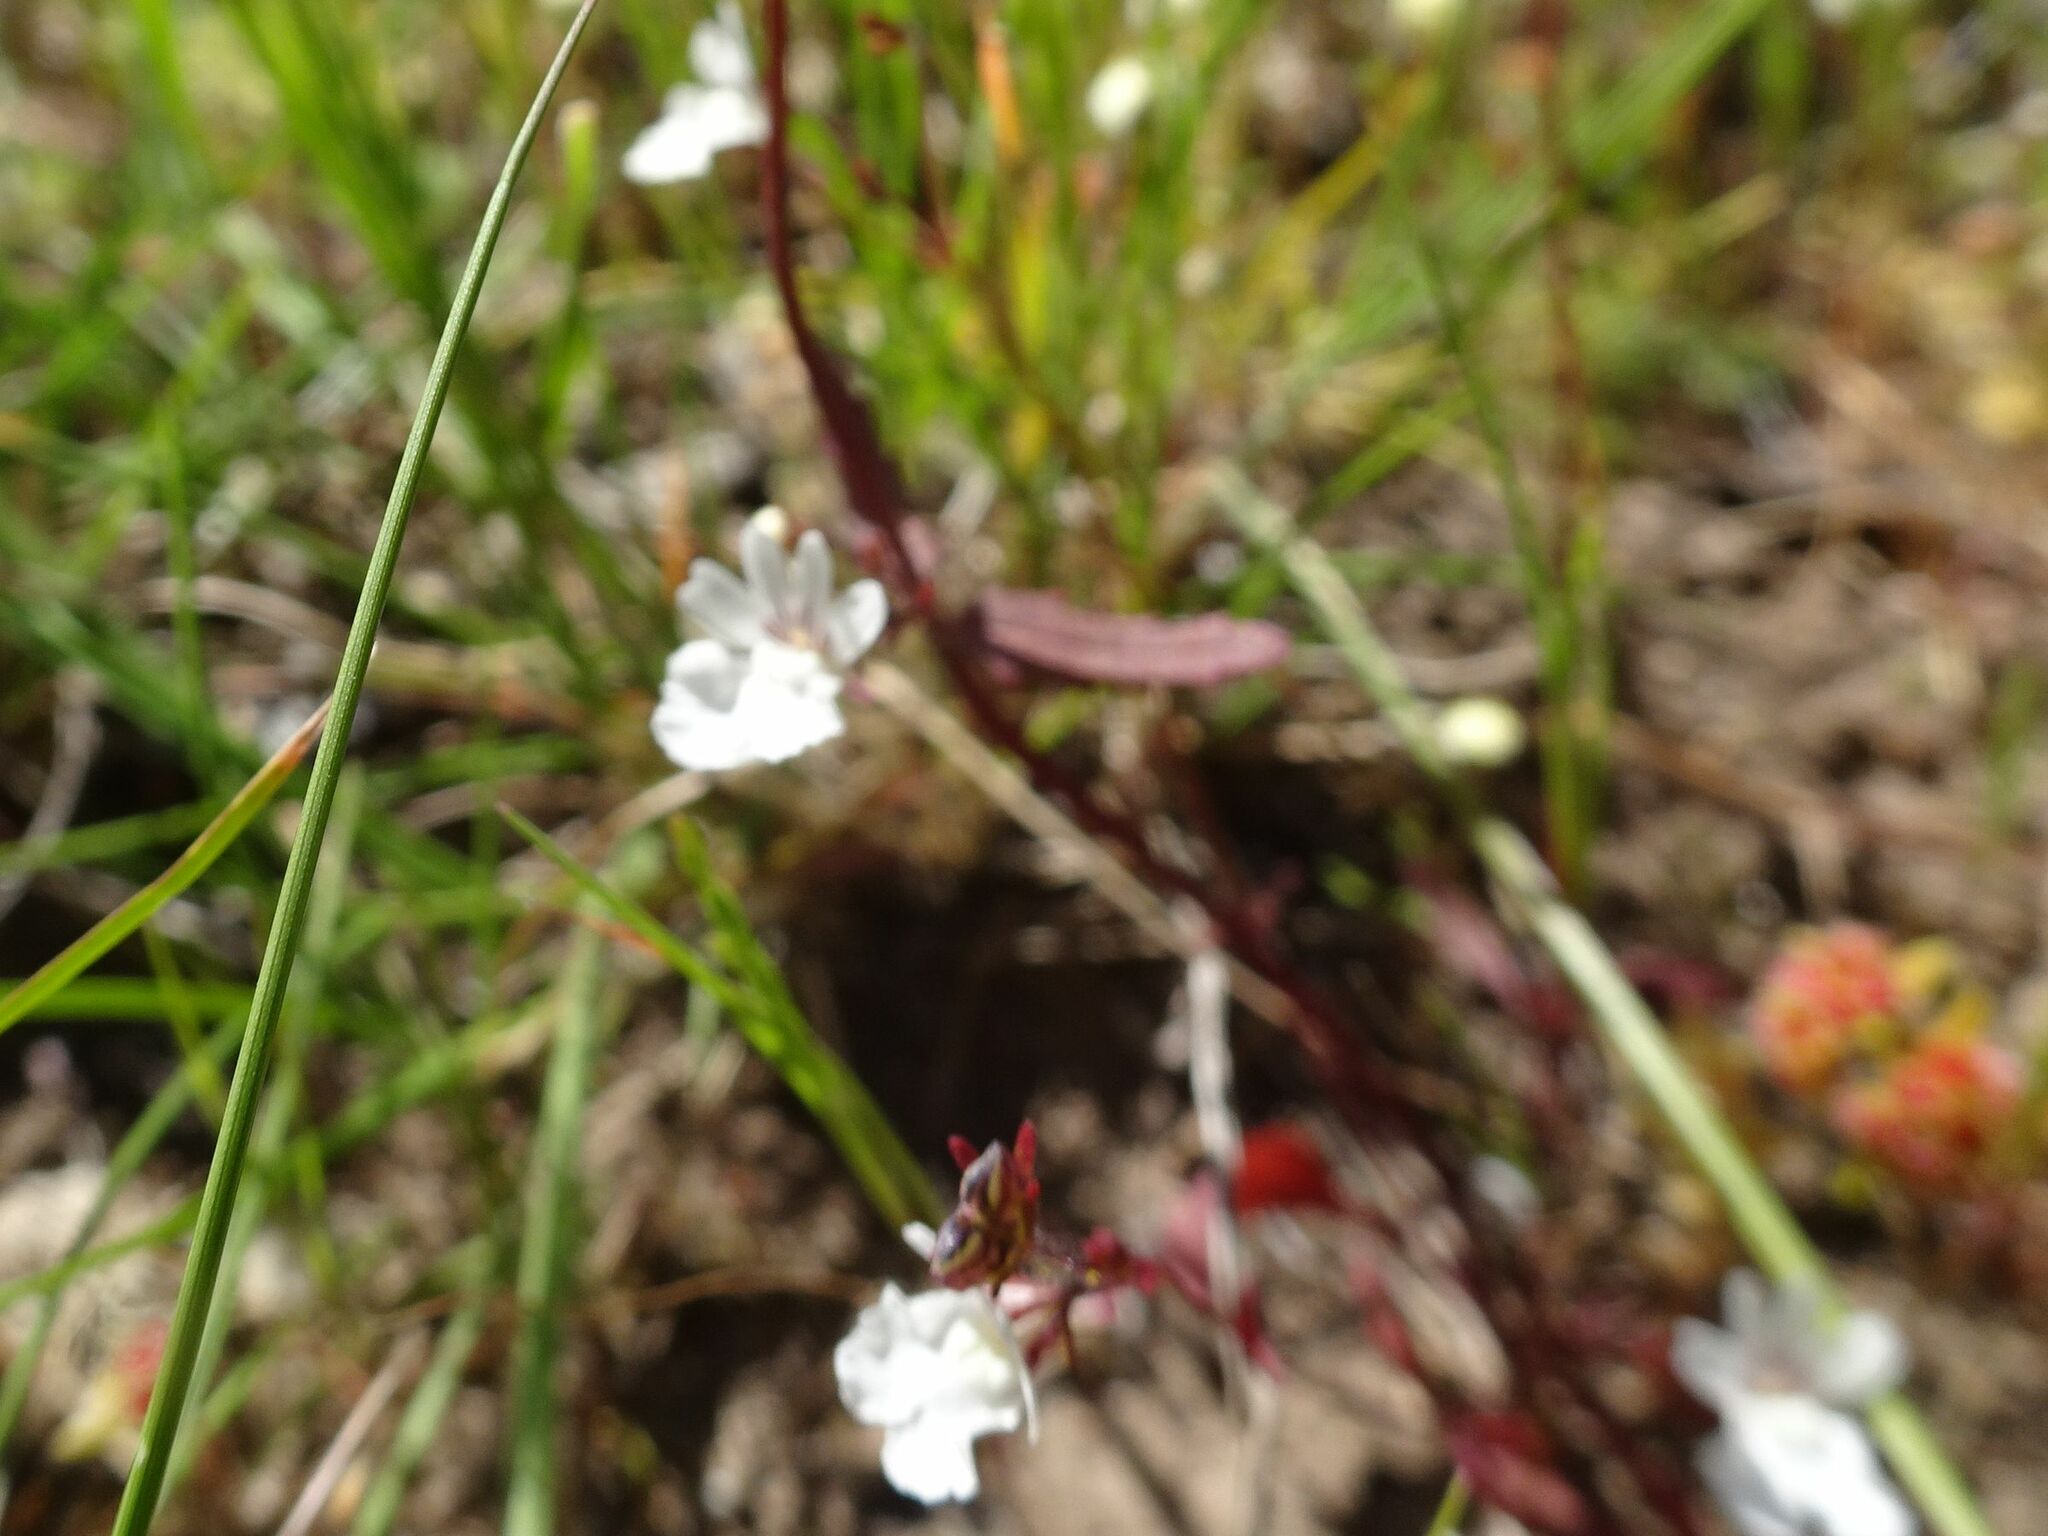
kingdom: Plantae
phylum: Tracheophyta
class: Magnoliopsida
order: Lamiales
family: Scrophulariaceae
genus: Nemesia
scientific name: Nemesia bicornis
